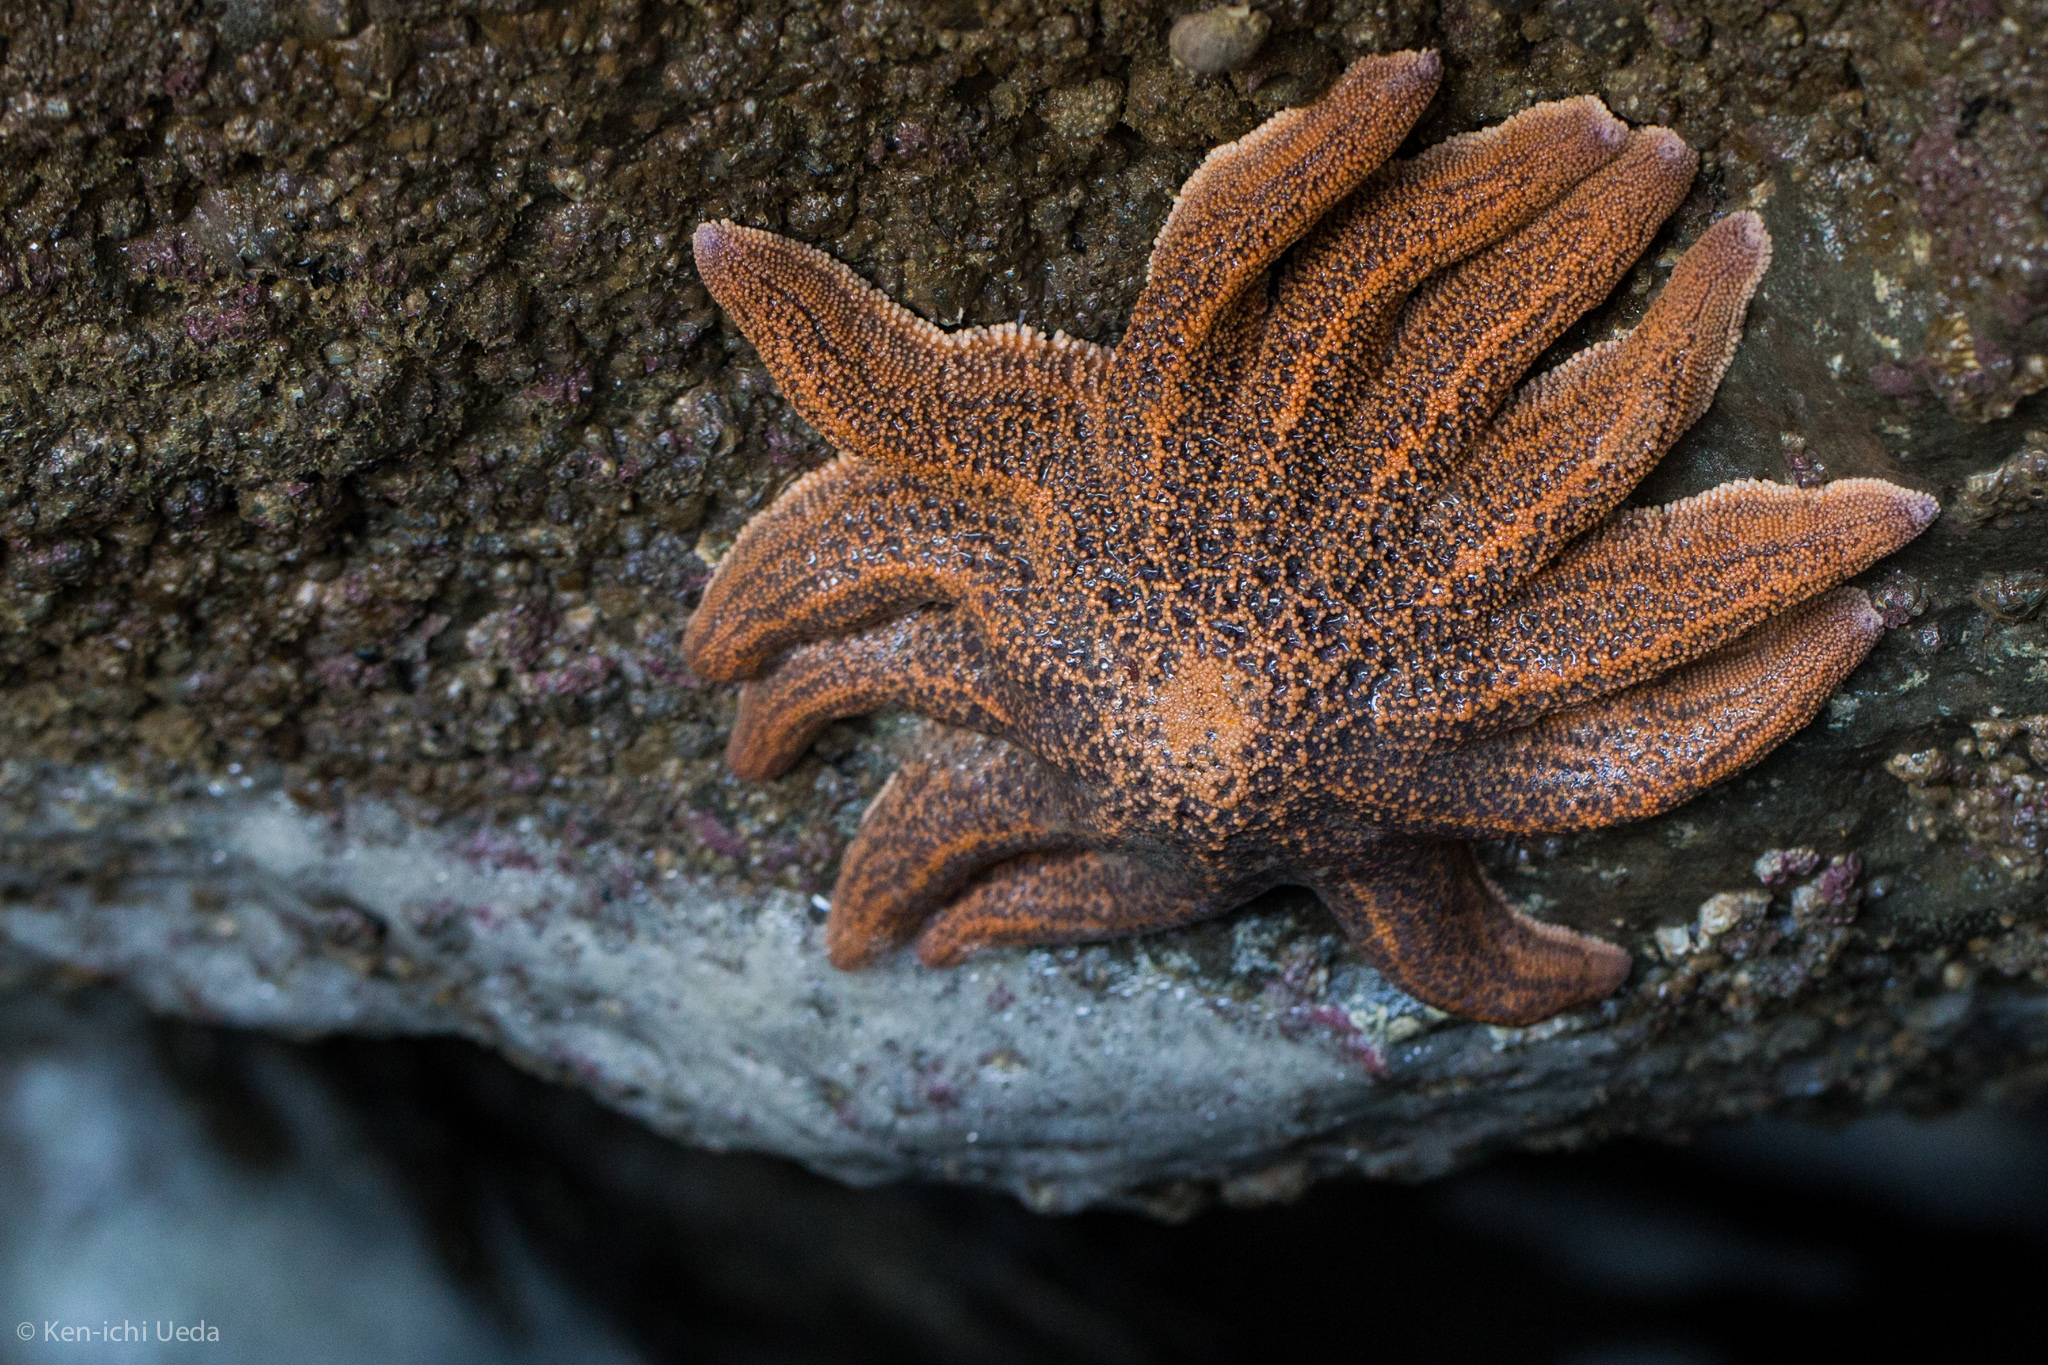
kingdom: Animalia
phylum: Echinodermata
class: Asteroidea
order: Forcipulatida
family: Stichasteridae
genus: Stichaster
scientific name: Stichaster australis
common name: Reef starfish
